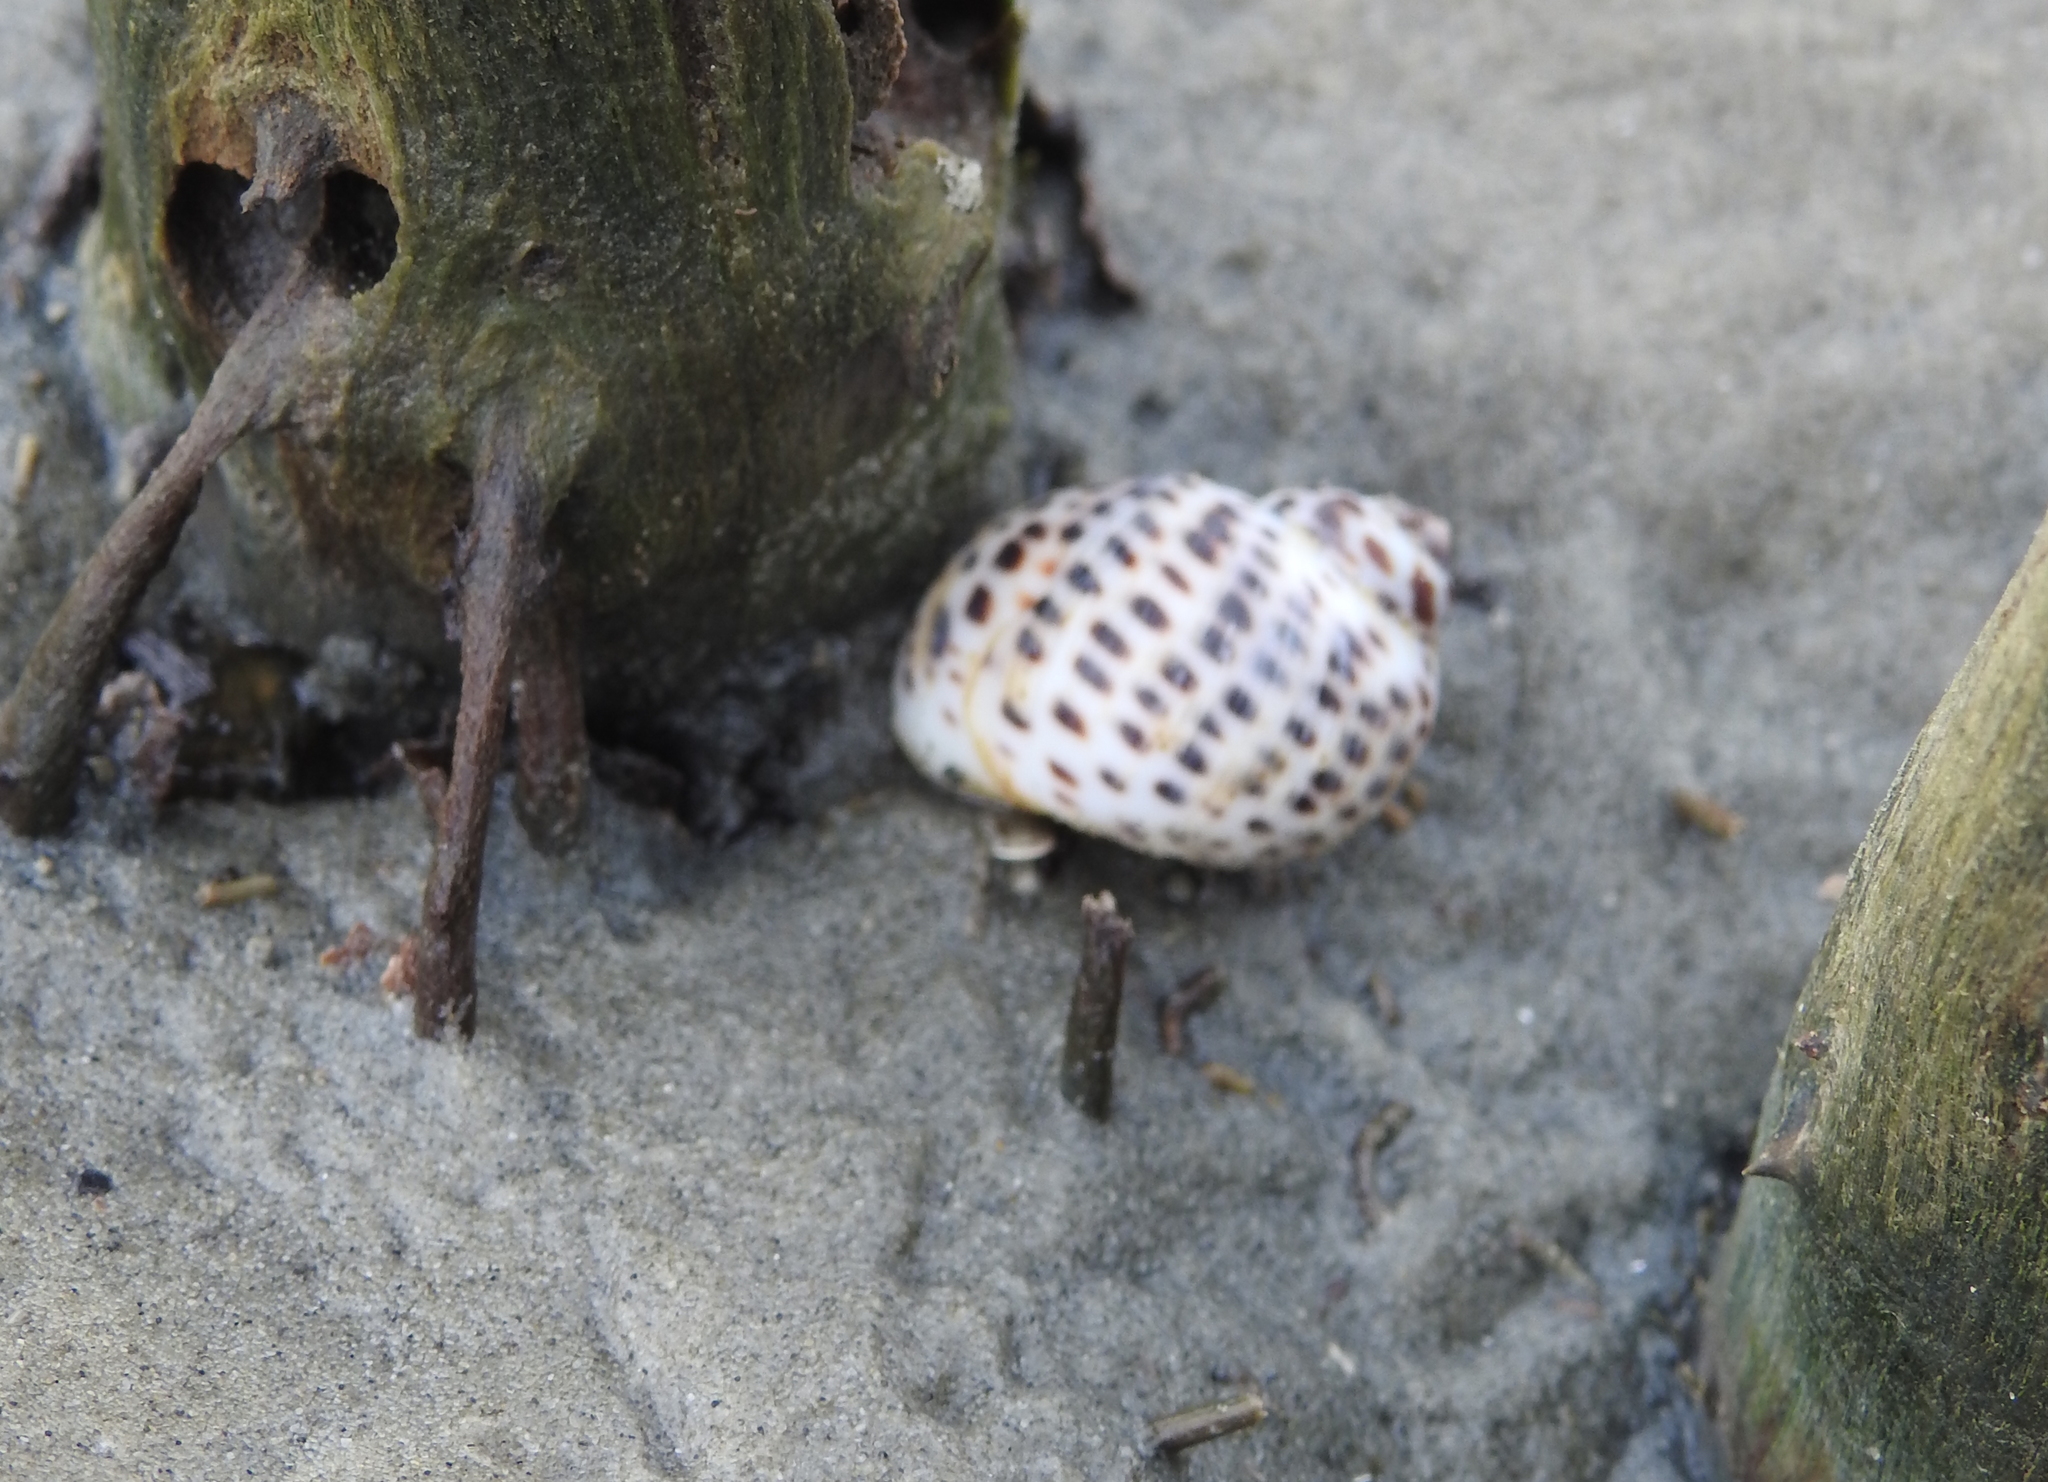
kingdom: Animalia
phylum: Mollusca
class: Gastropoda
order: Littorinimorpha
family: Naticidae
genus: Paratectonatica
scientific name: Paratectonatica tigrina
